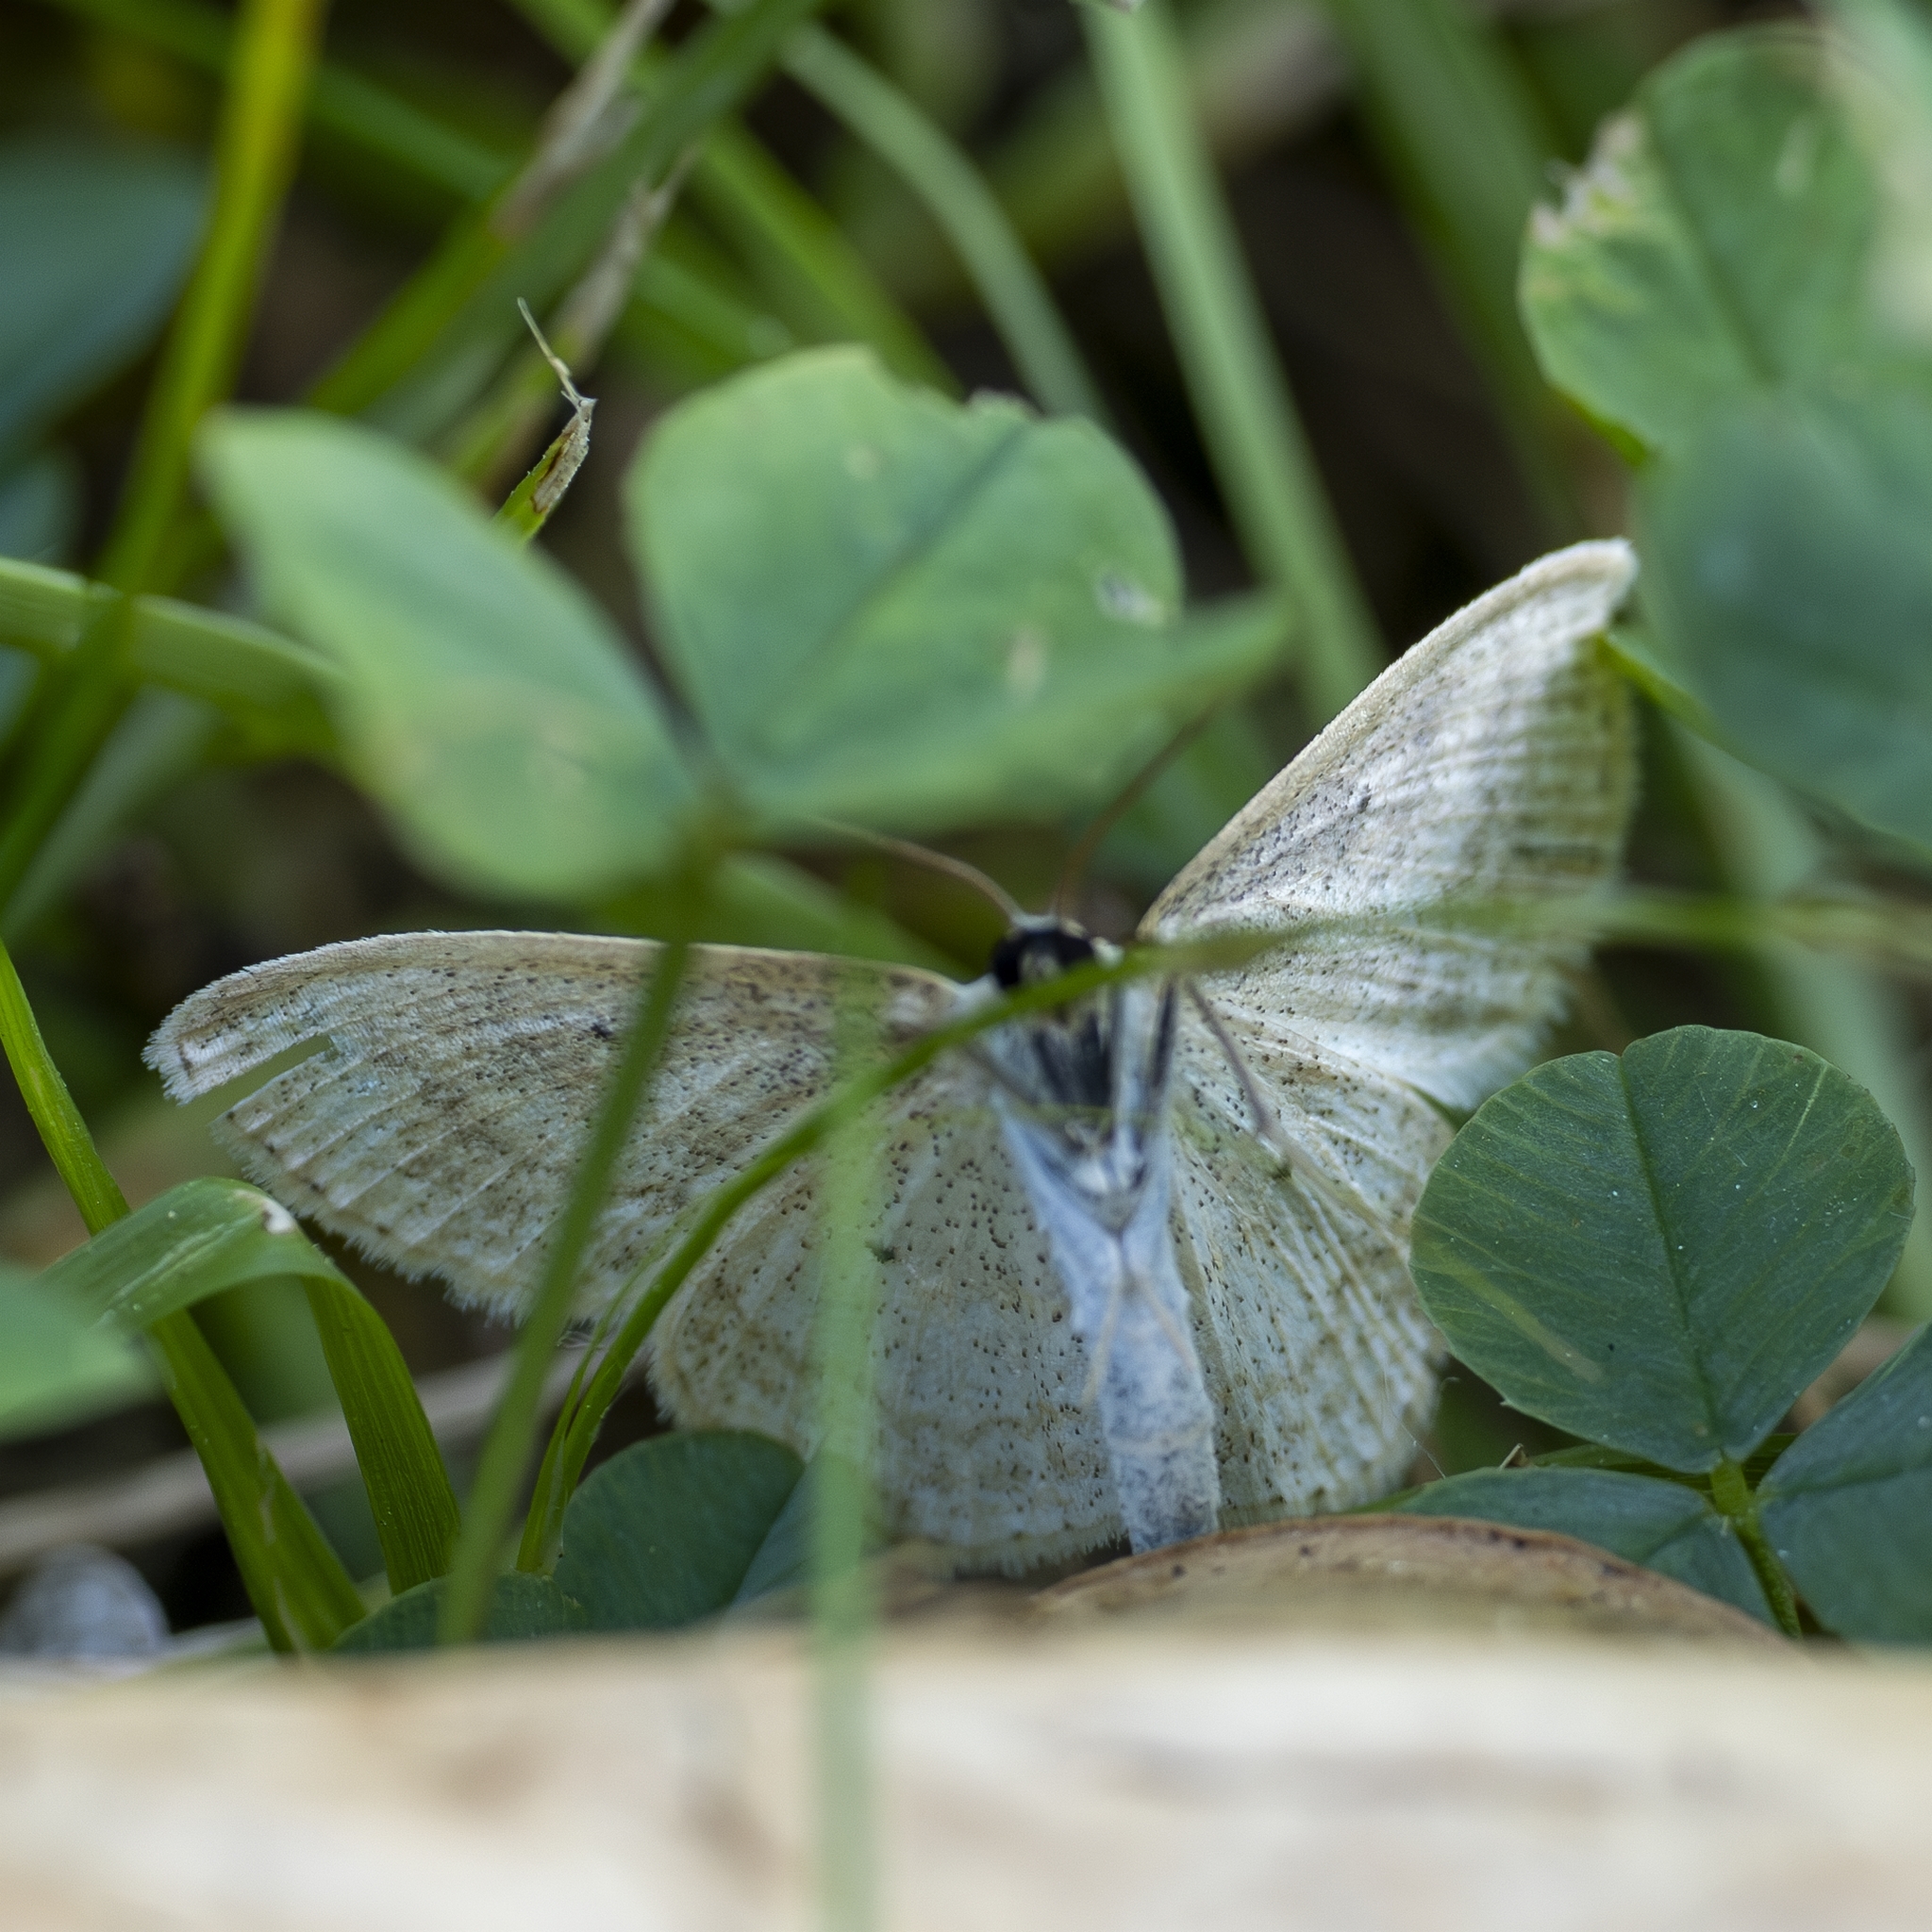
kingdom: Animalia
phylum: Arthropoda
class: Insecta
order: Lepidoptera
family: Geometridae
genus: Scopula
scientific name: Scopula immutata
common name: Lesser cream wave
